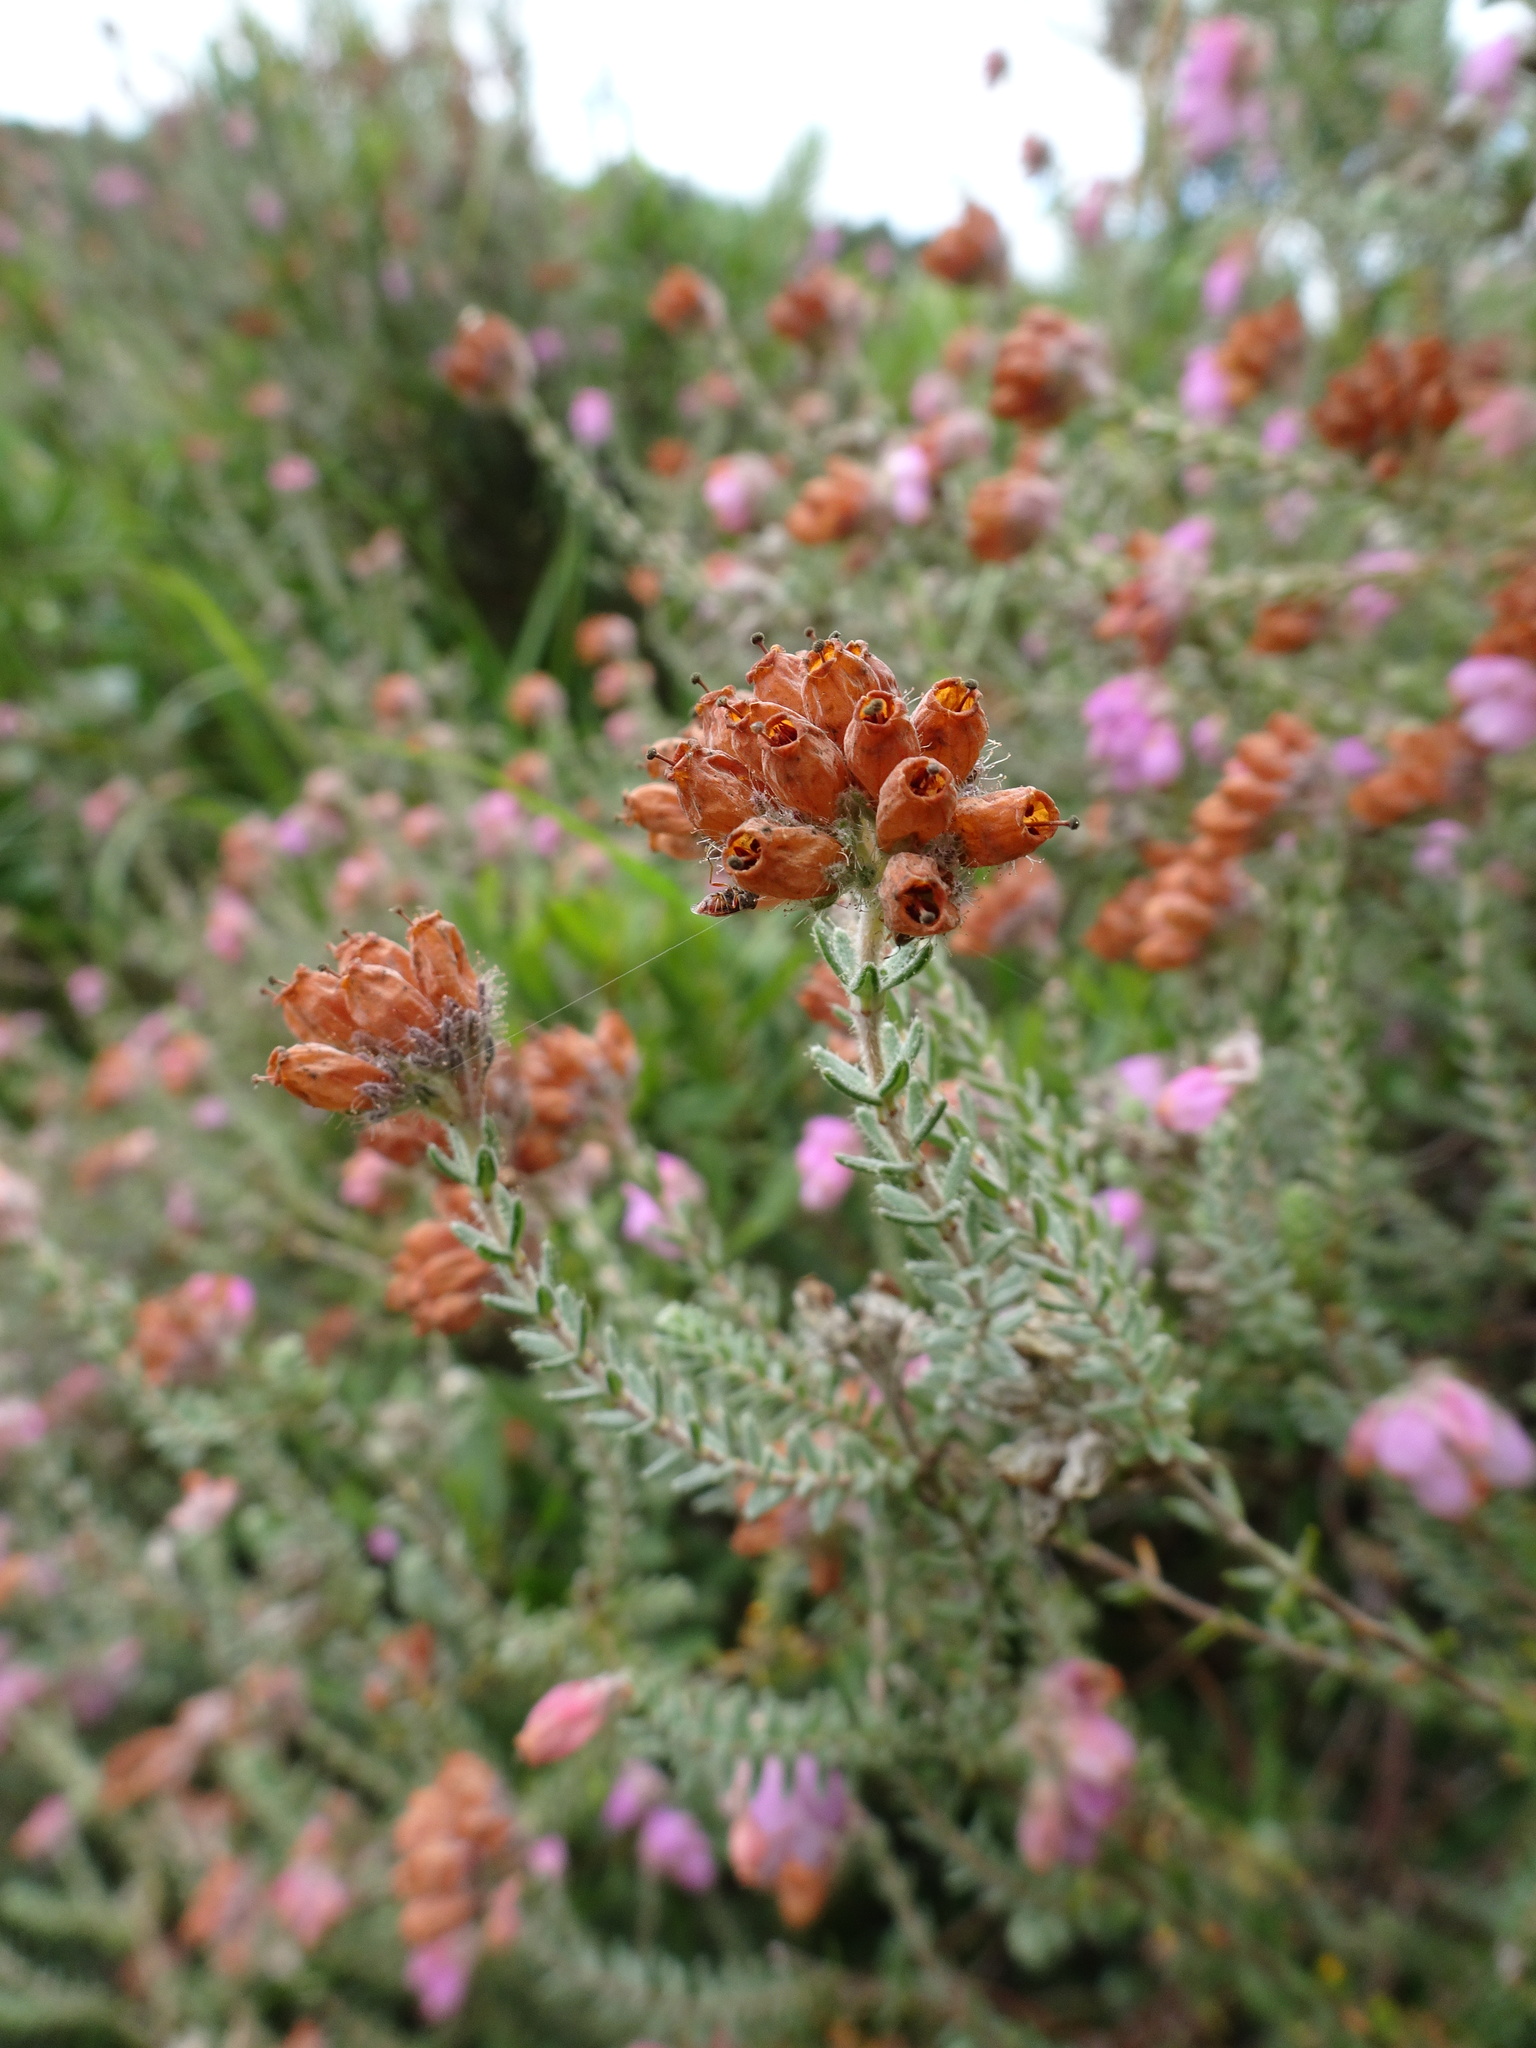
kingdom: Plantae
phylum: Tracheophyta
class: Magnoliopsida
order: Ericales
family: Ericaceae
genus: Erica
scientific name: Erica tetralix
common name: Cross-leaved heath
